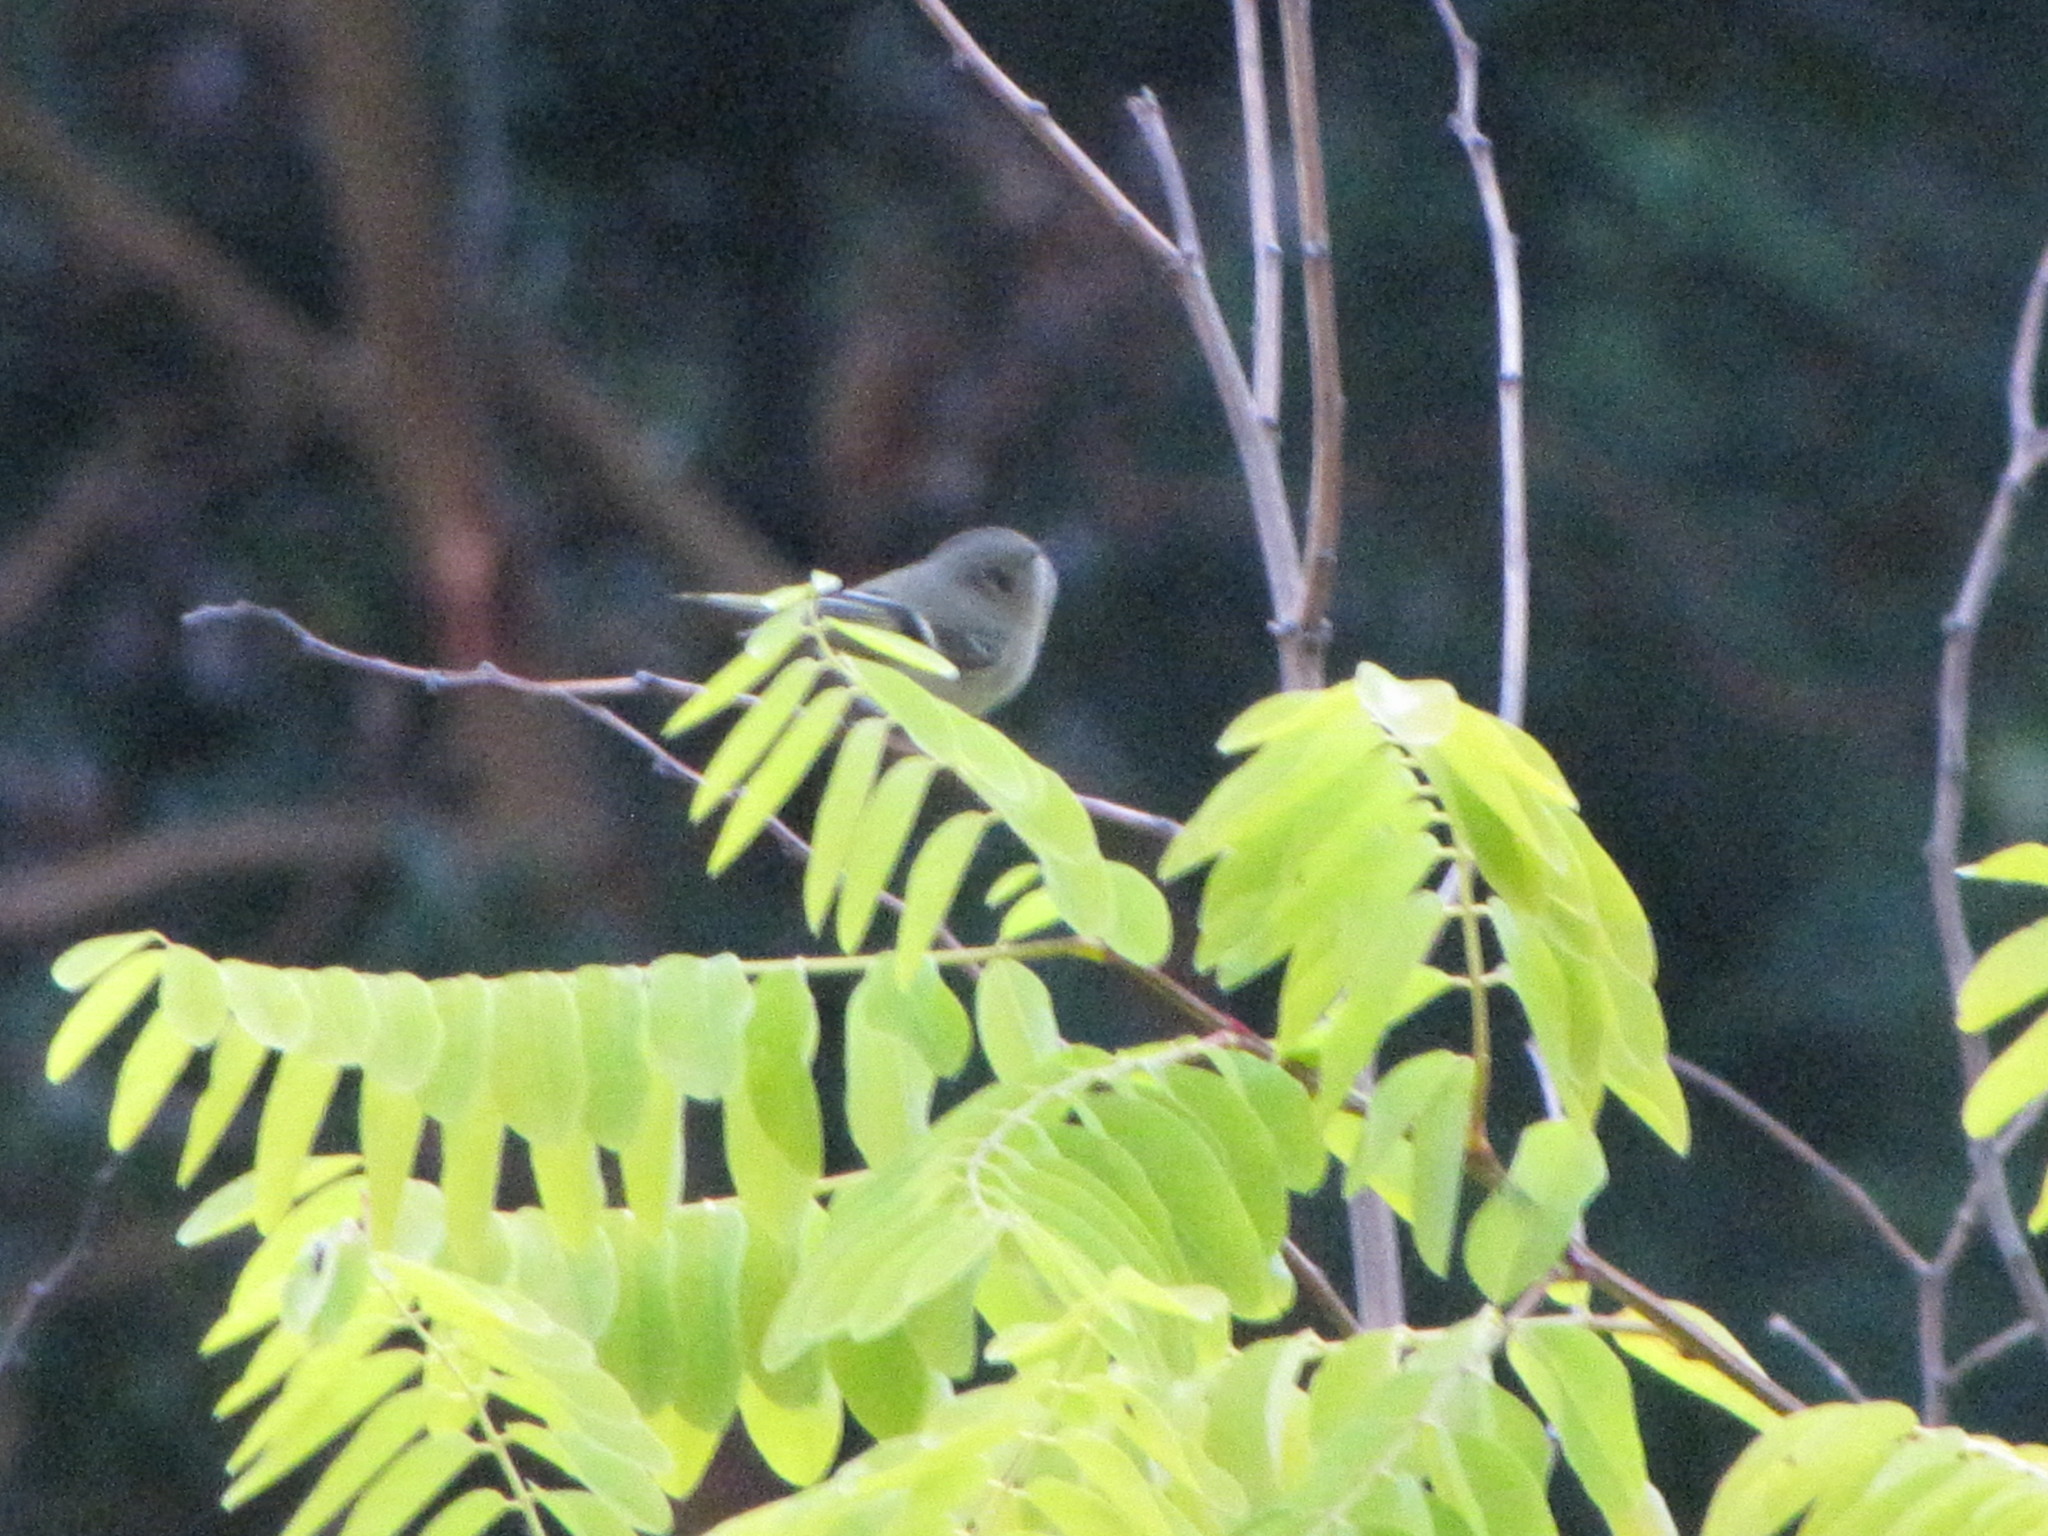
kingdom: Animalia
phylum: Chordata
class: Aves
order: Passeriformes
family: Regulidae
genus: Regulus
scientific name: Regulus calendula
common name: Ruby-crowned kinglet
